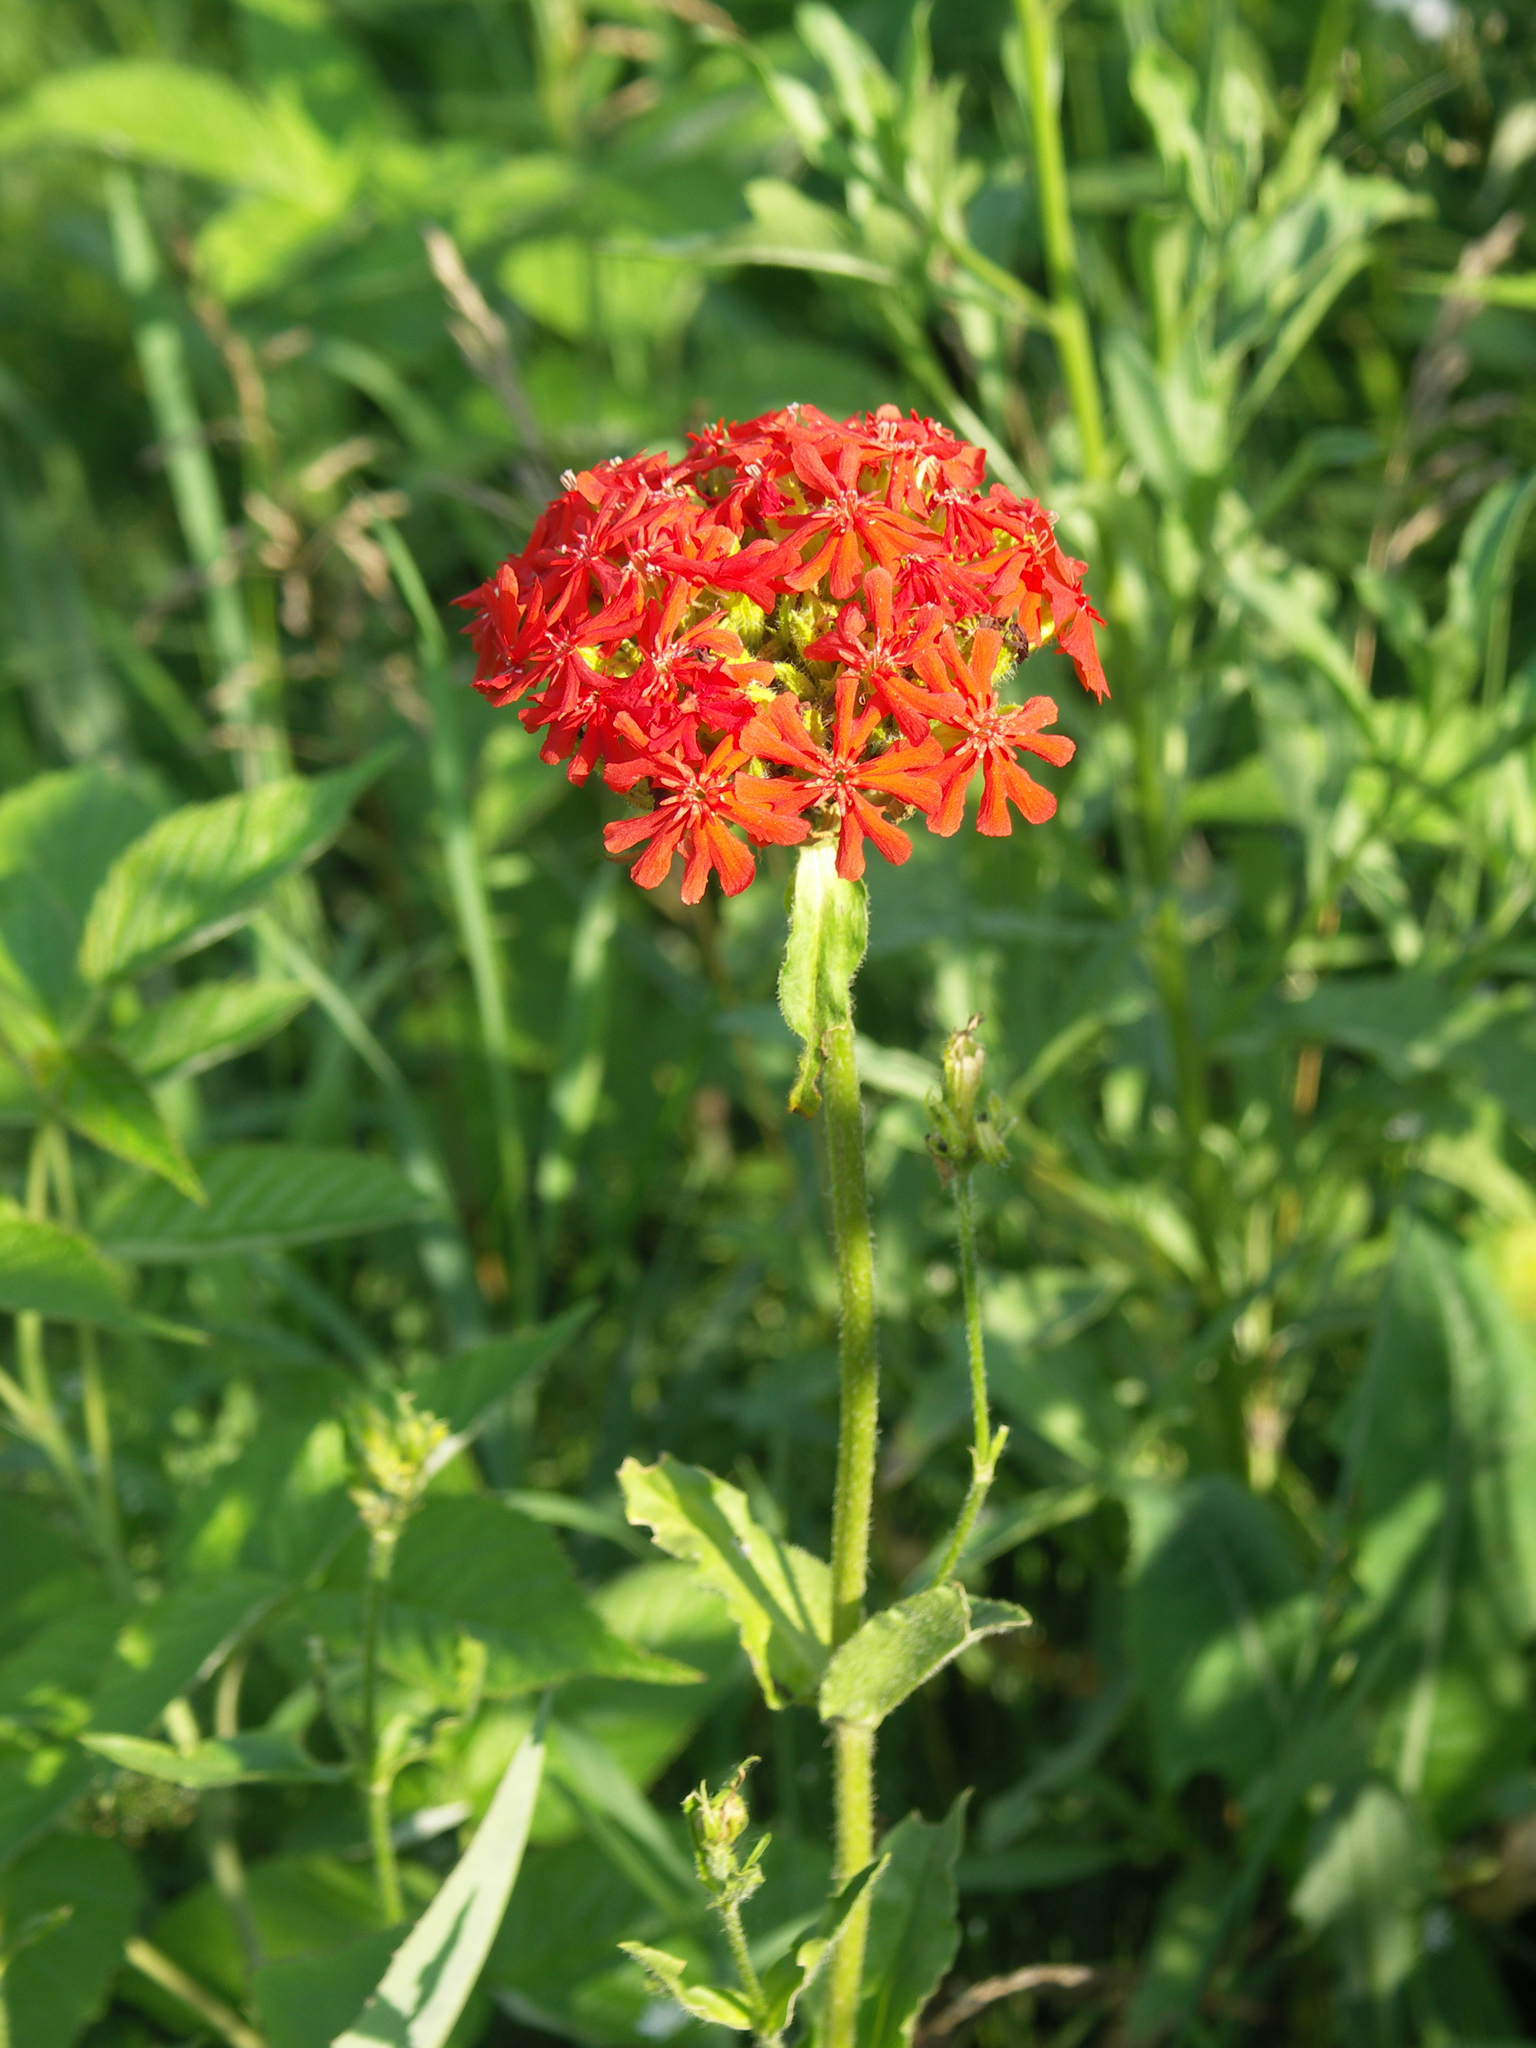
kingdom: Plantae
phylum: Tracheophyta
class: Magnoliopsida
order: Caryophyllales
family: Caryophyllaceae
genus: Silene
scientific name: Silene chalcedonica
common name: Maltese-cross
